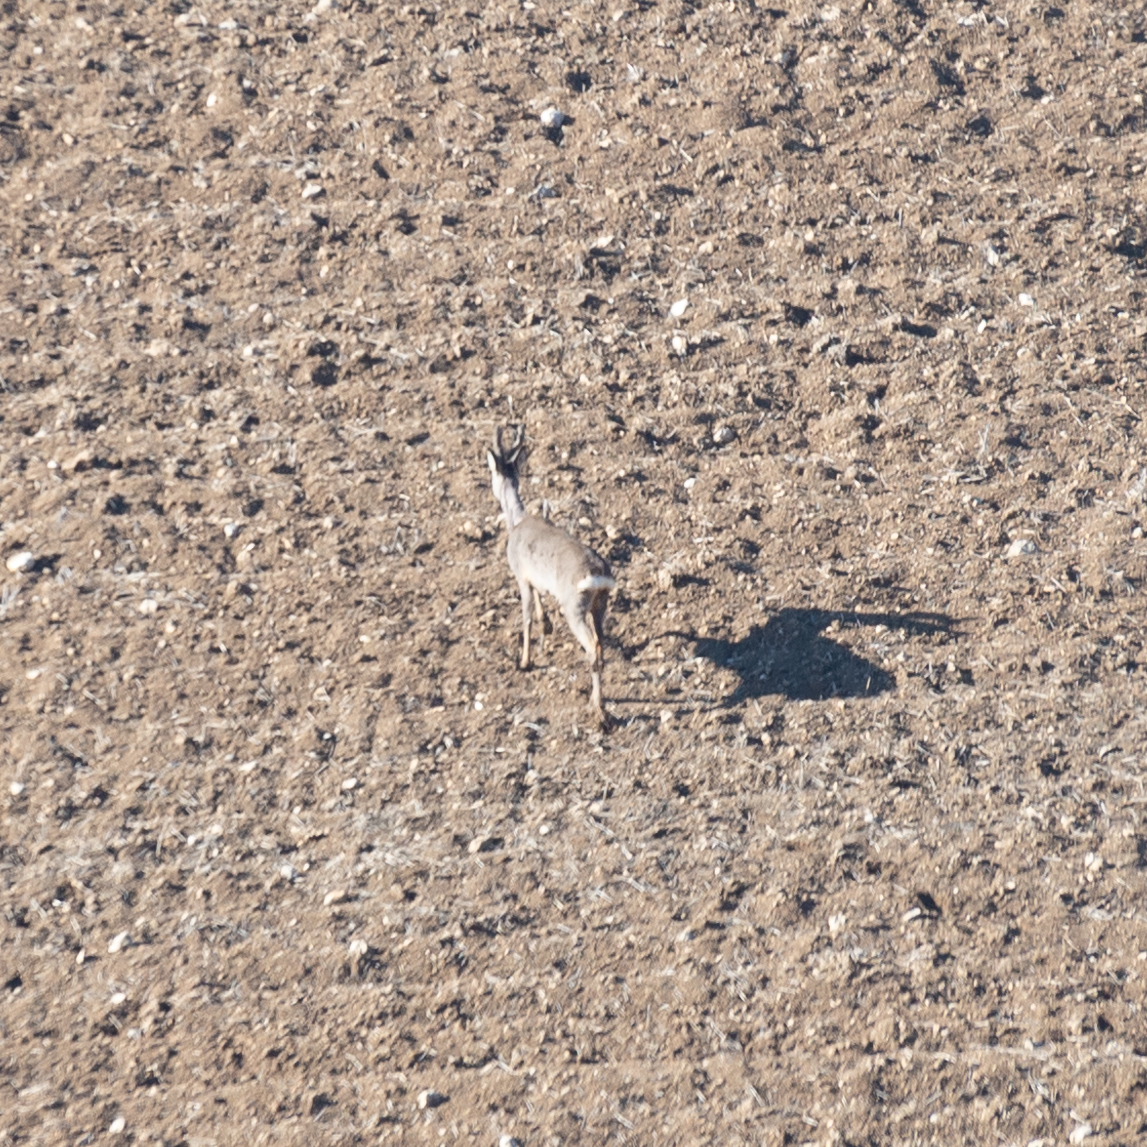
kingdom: Animalia
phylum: Chordata
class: Mammalia
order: Artiodactyla
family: Cervidae
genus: Capreolus
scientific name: Capreolus capreolus
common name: Western roe deer
